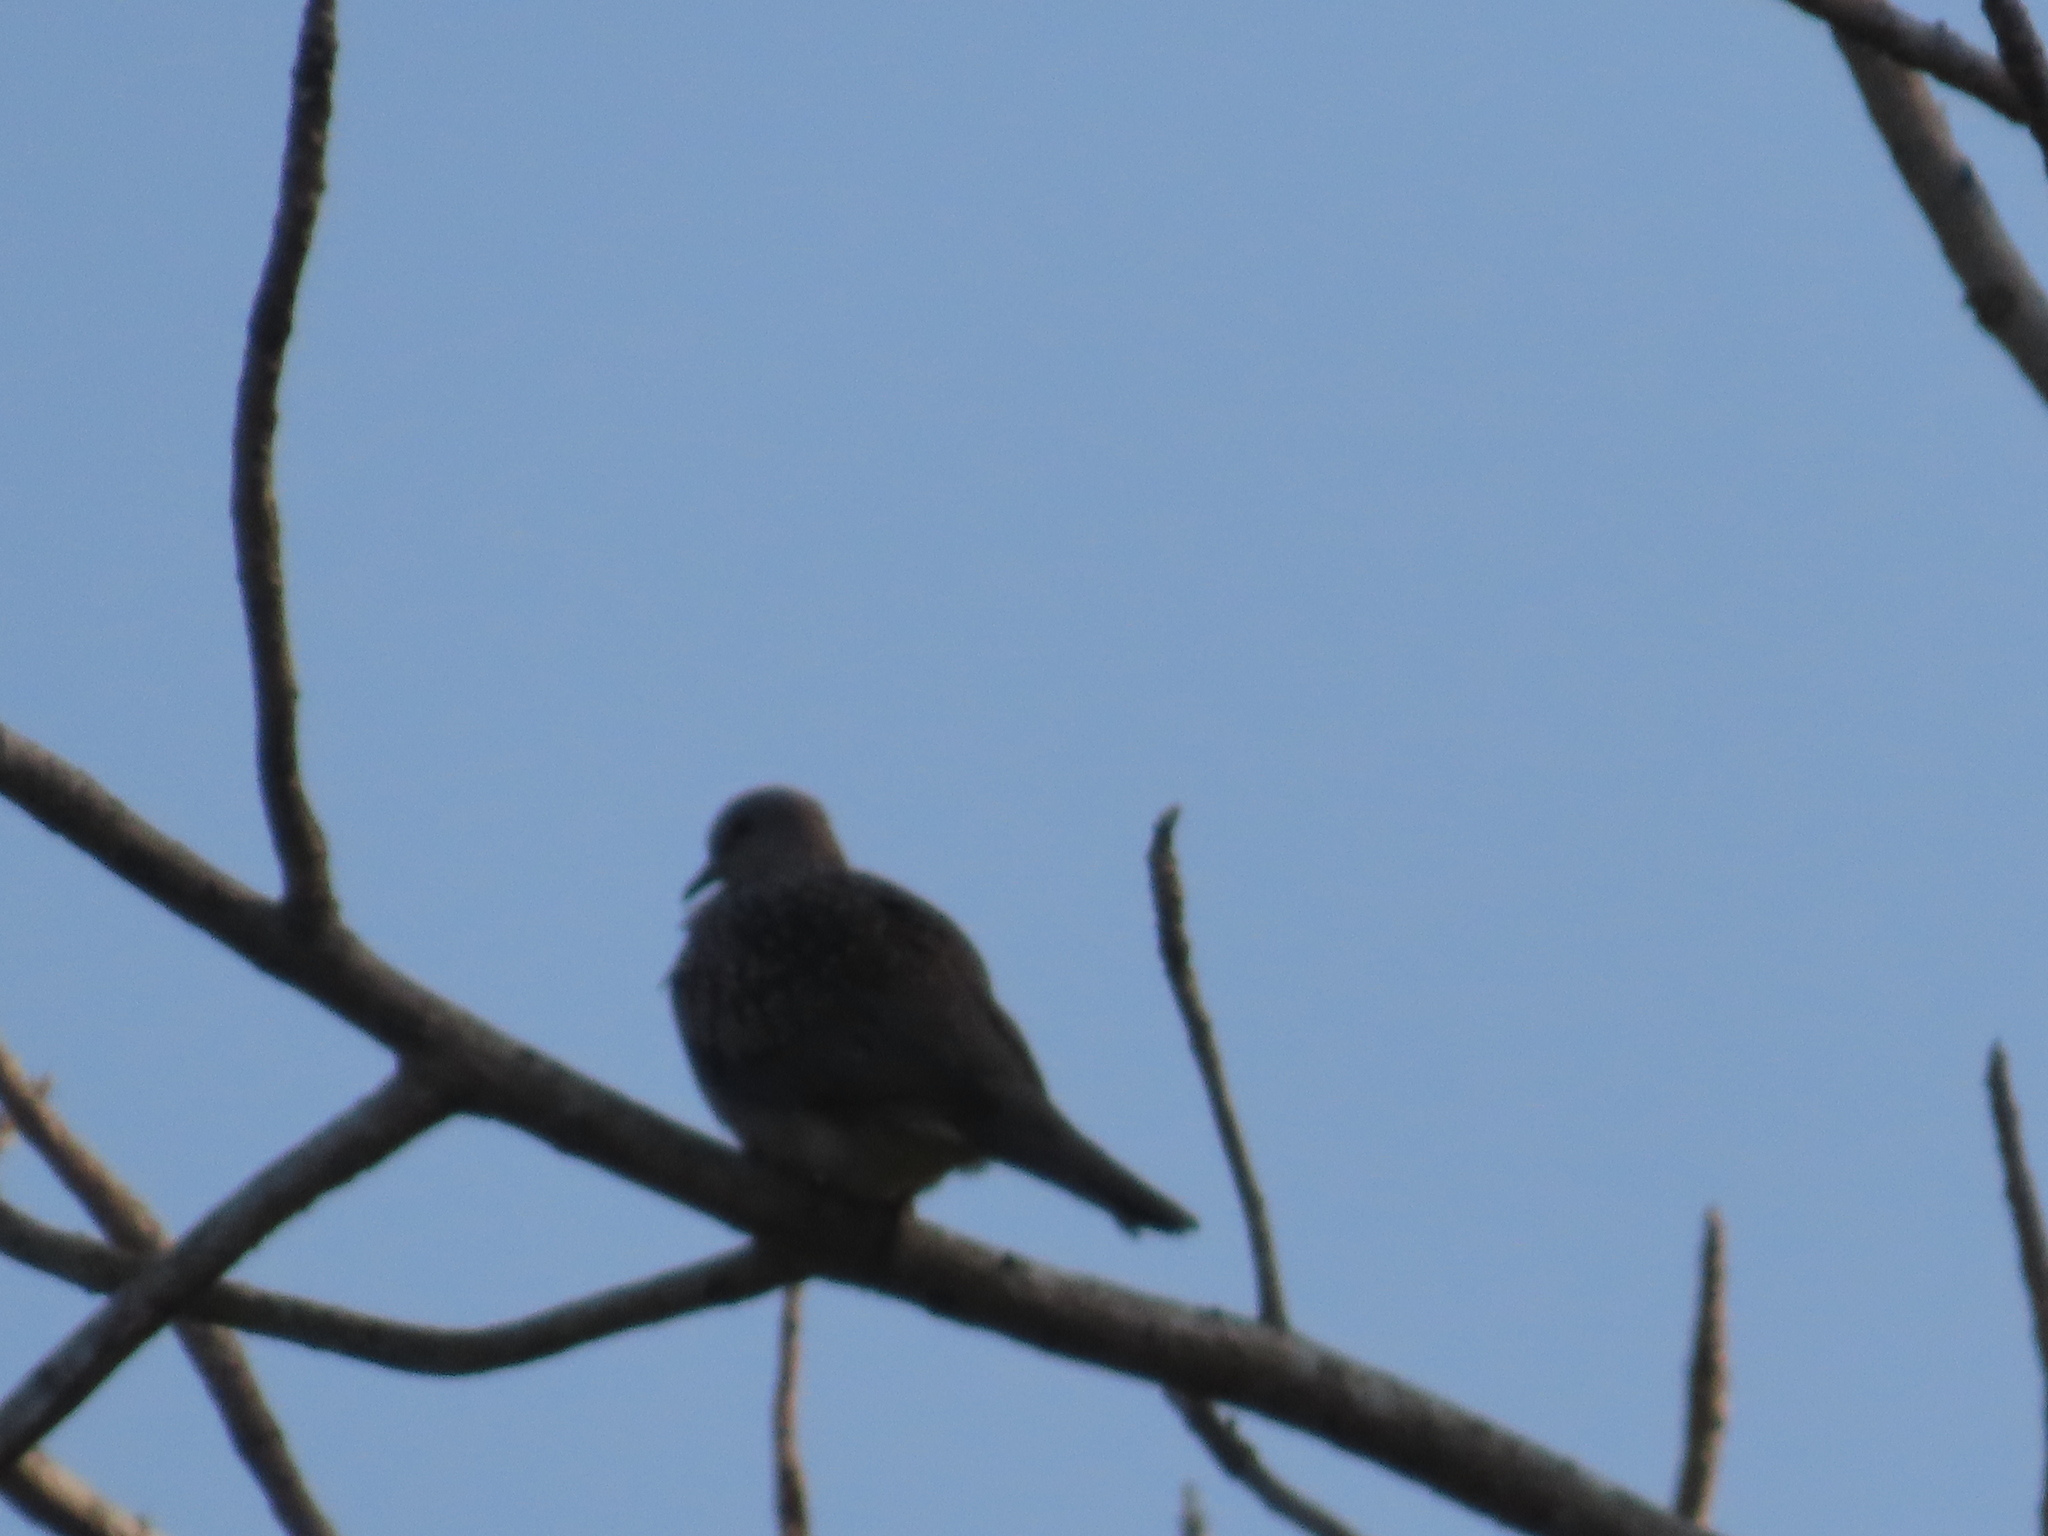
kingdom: Animalia
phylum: Chordata
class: Aves
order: Columbiformes
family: Columbidae
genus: Spilopelia
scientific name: Spilopelia chinensis
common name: Spotted dove
